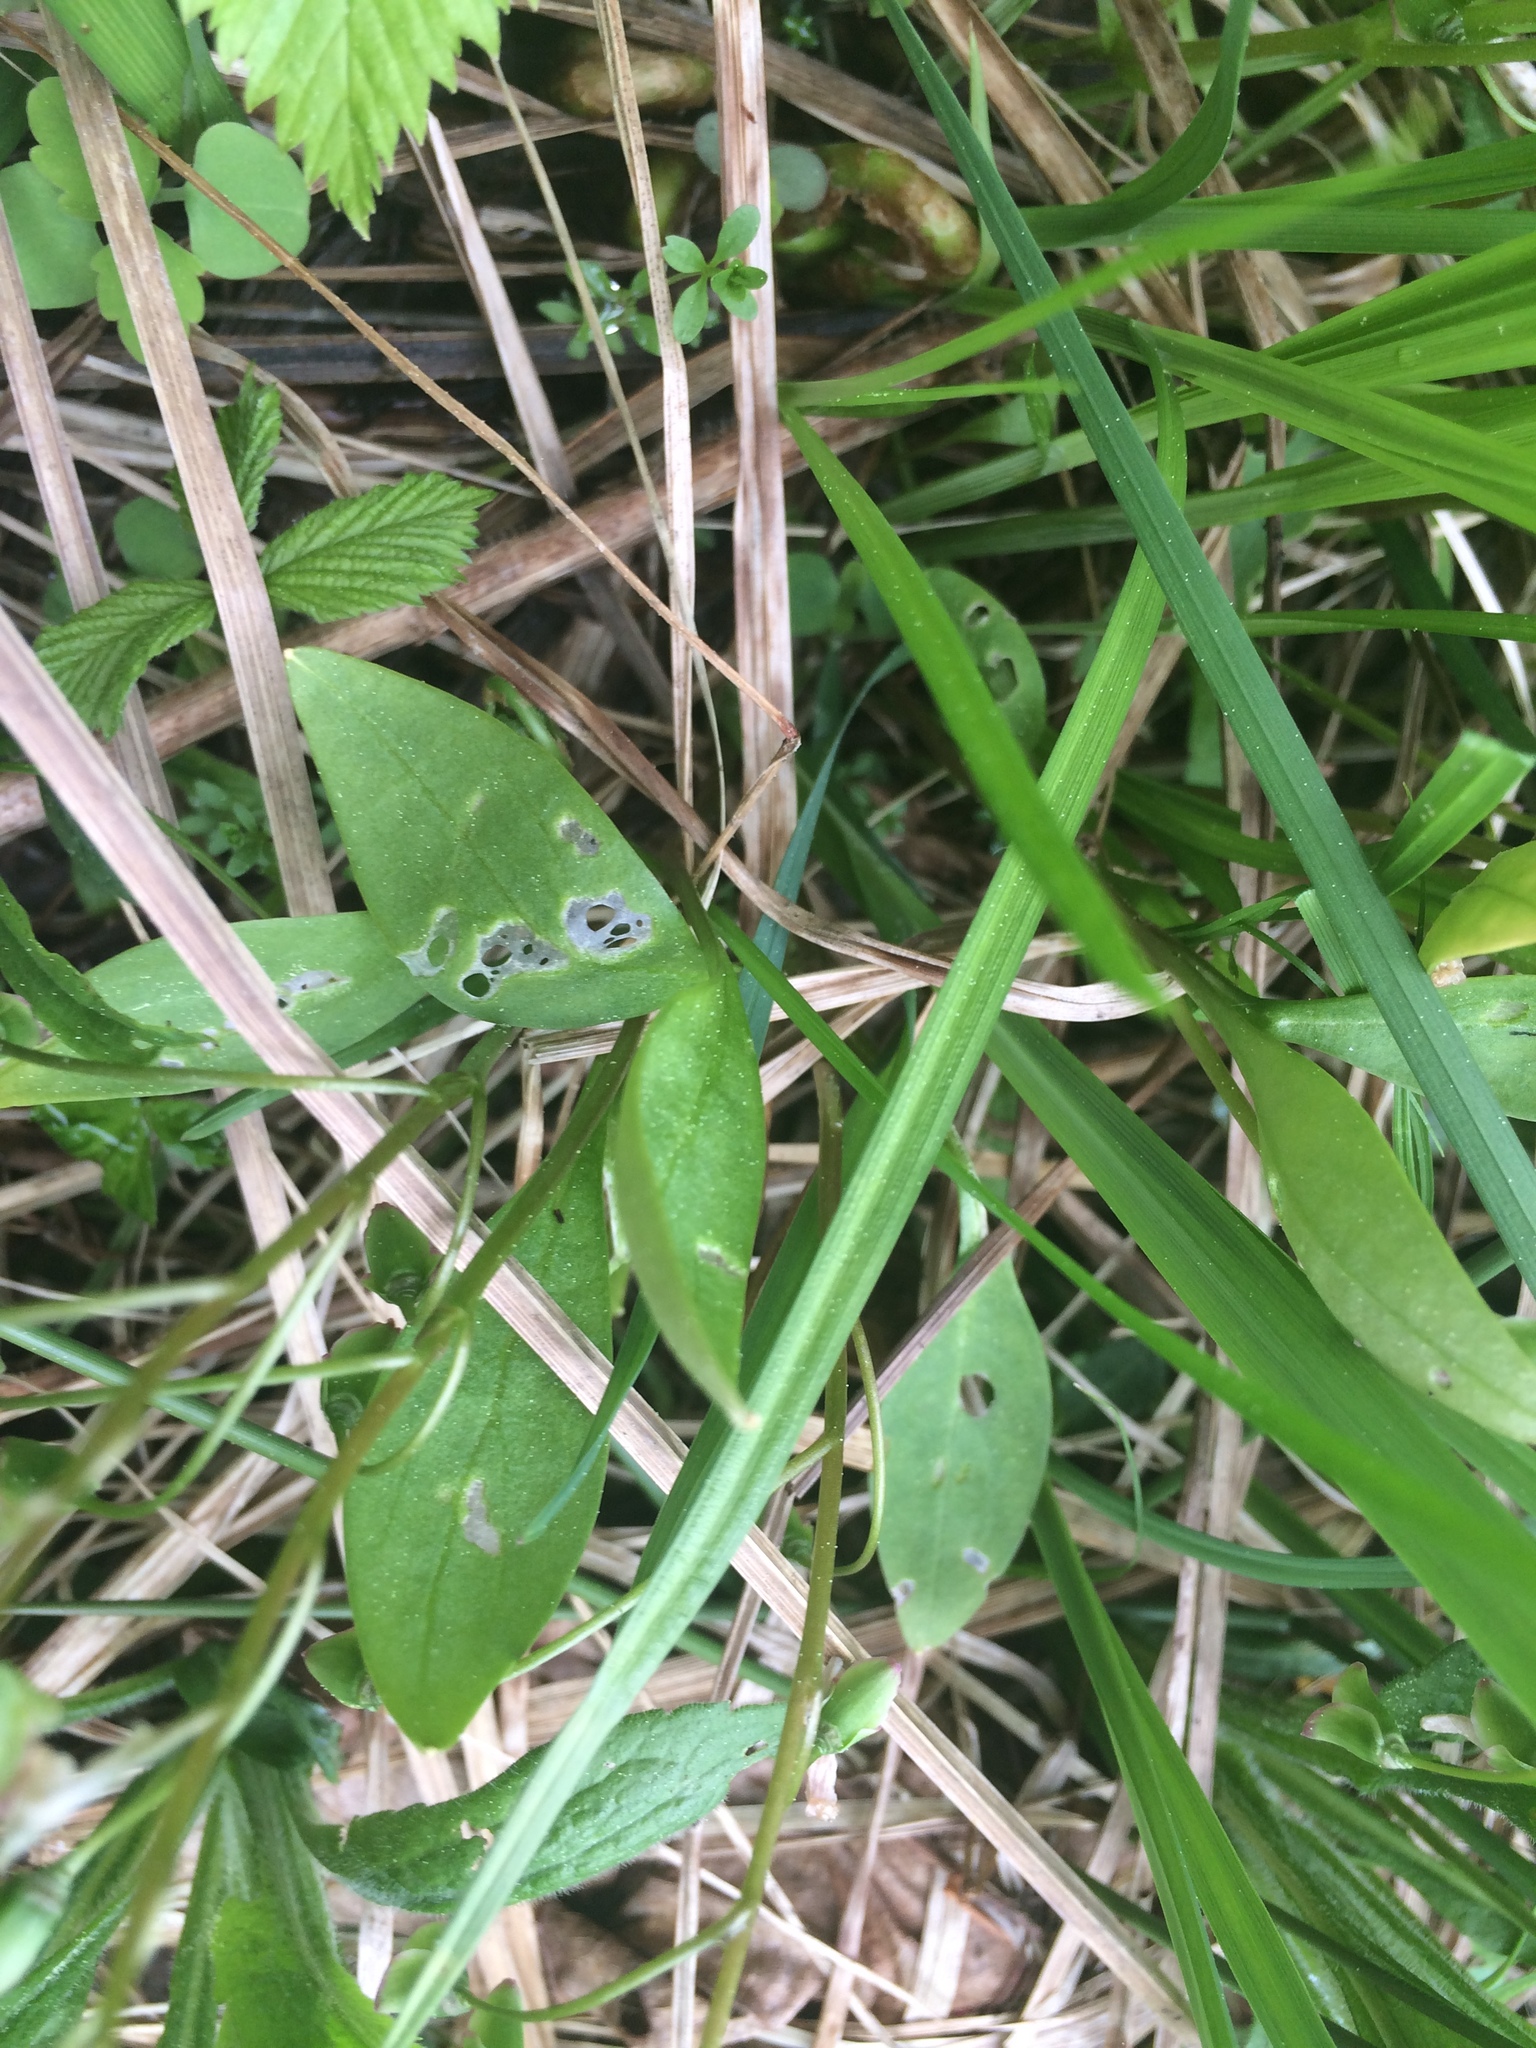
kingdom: Plantae
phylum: Tracheophyta
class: Magnoliopsida
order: Caryophyllales
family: Montiaceae
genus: Claytonia
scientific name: Claytonia caroliniana
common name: Carolina spring beauty
